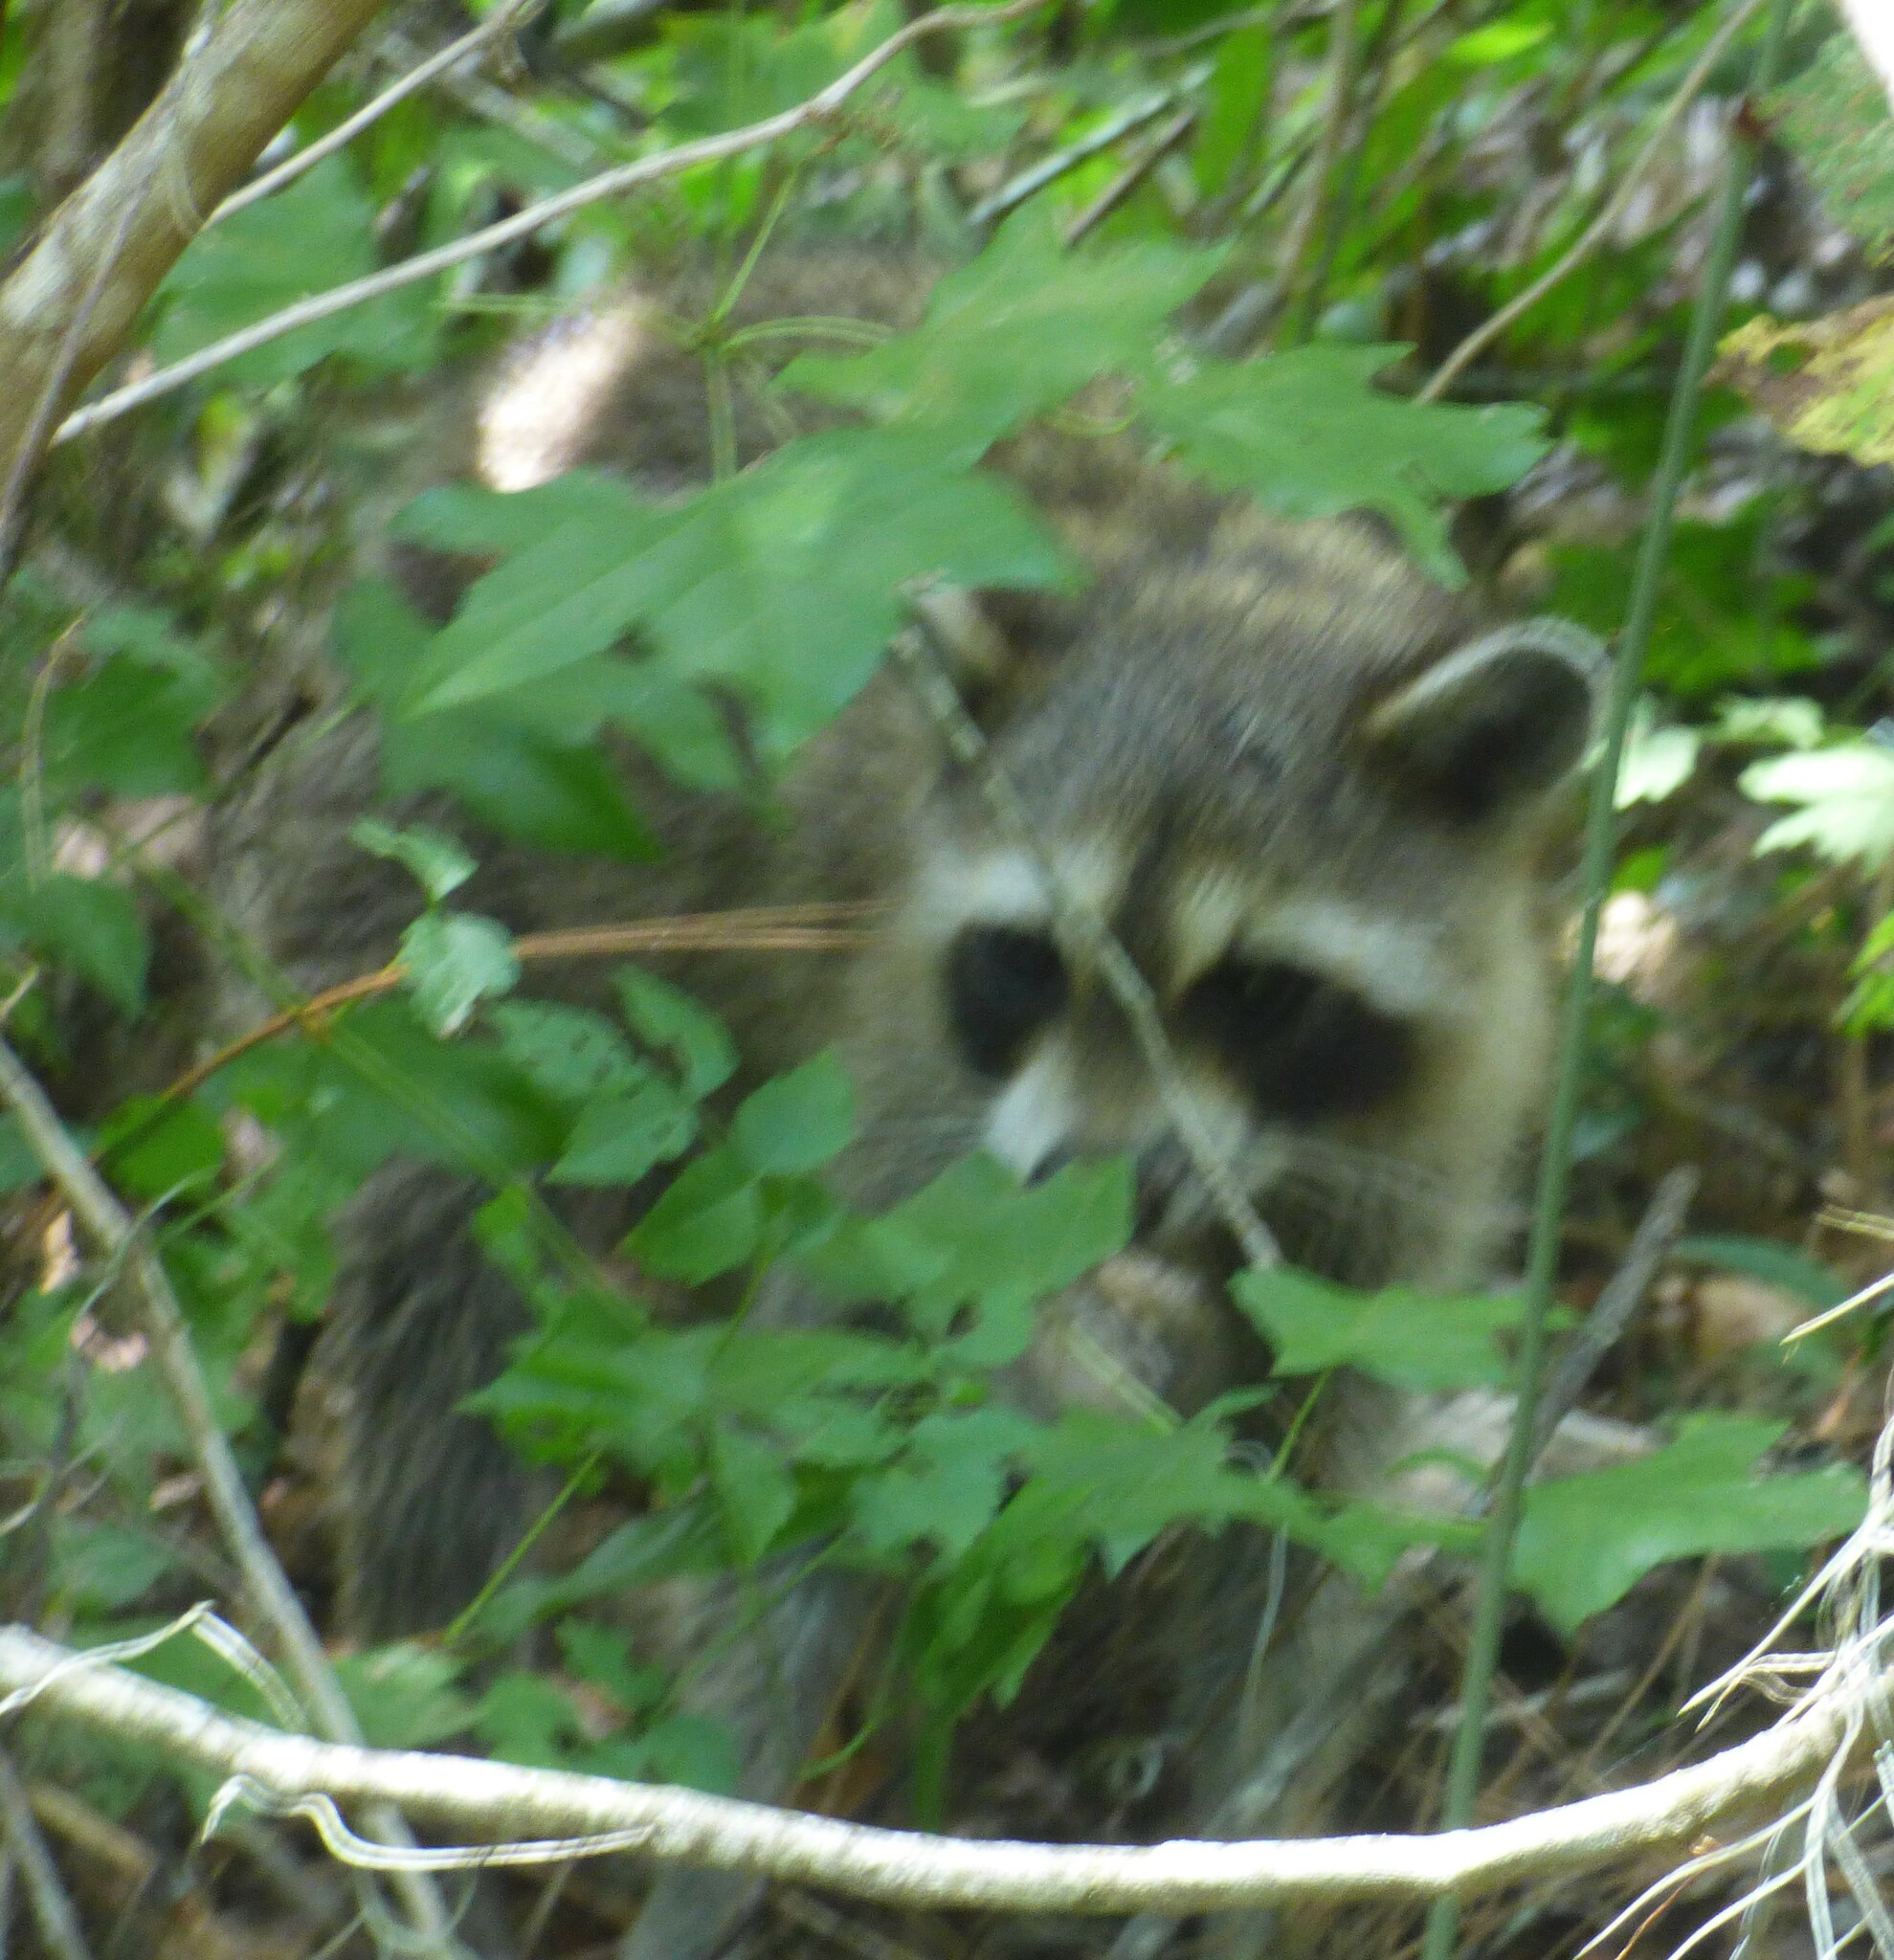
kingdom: Animalia
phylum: Chordata
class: Mammalia
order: Carnivora
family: Procyonidae
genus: Procyon
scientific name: Procyon lotor
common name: Raccoon
